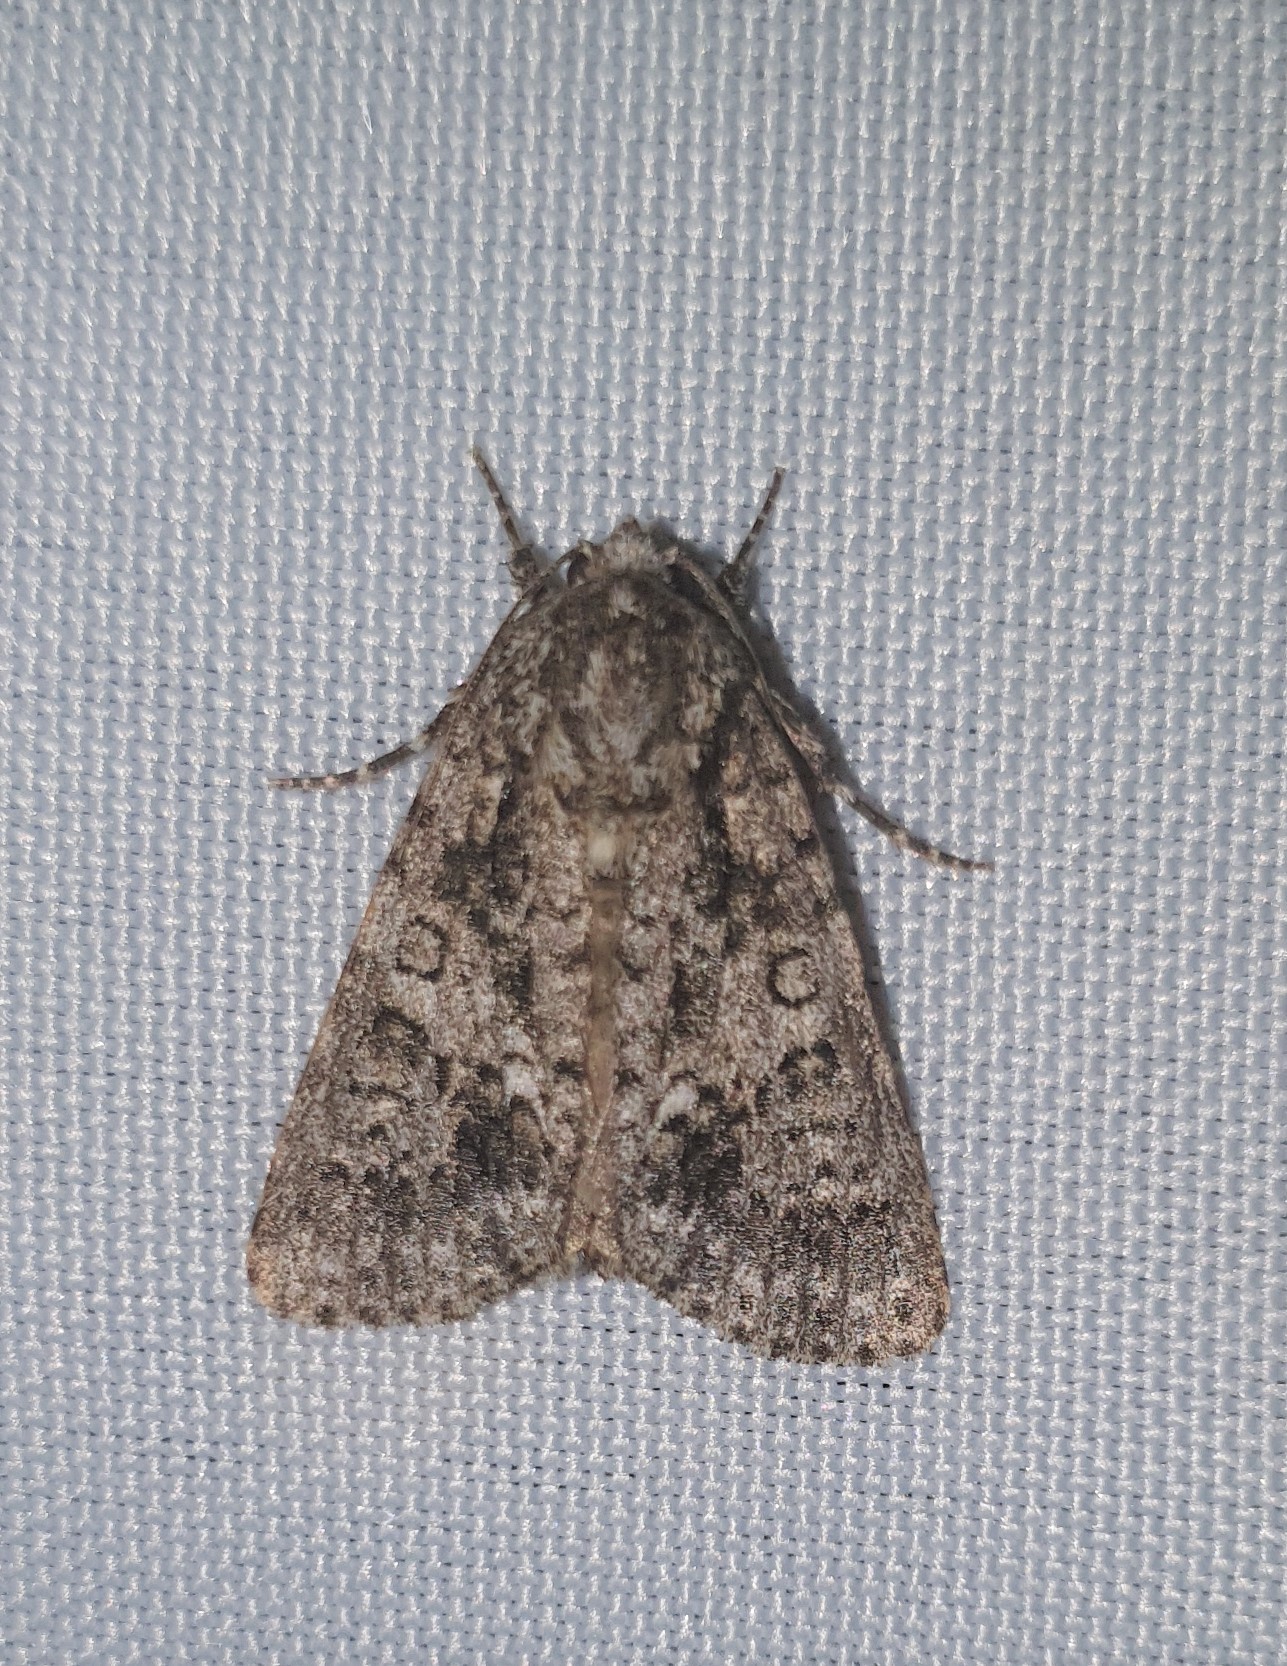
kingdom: Animalia
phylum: Arthropoda
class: Insecta
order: Lepidoptera
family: Noctuidae
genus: Acronicta
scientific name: Acronicta rumicis
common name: Knot grass
